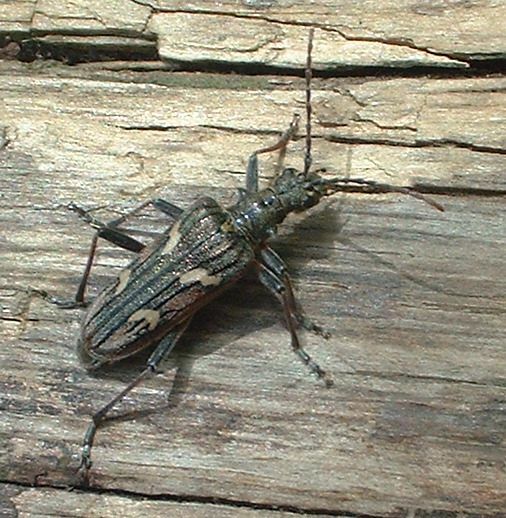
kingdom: Animalia
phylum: Arthropoda
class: Insecta
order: Coleoptera
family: Cerambycidae
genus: Rhagium
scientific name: Rhagium bifasciatum
